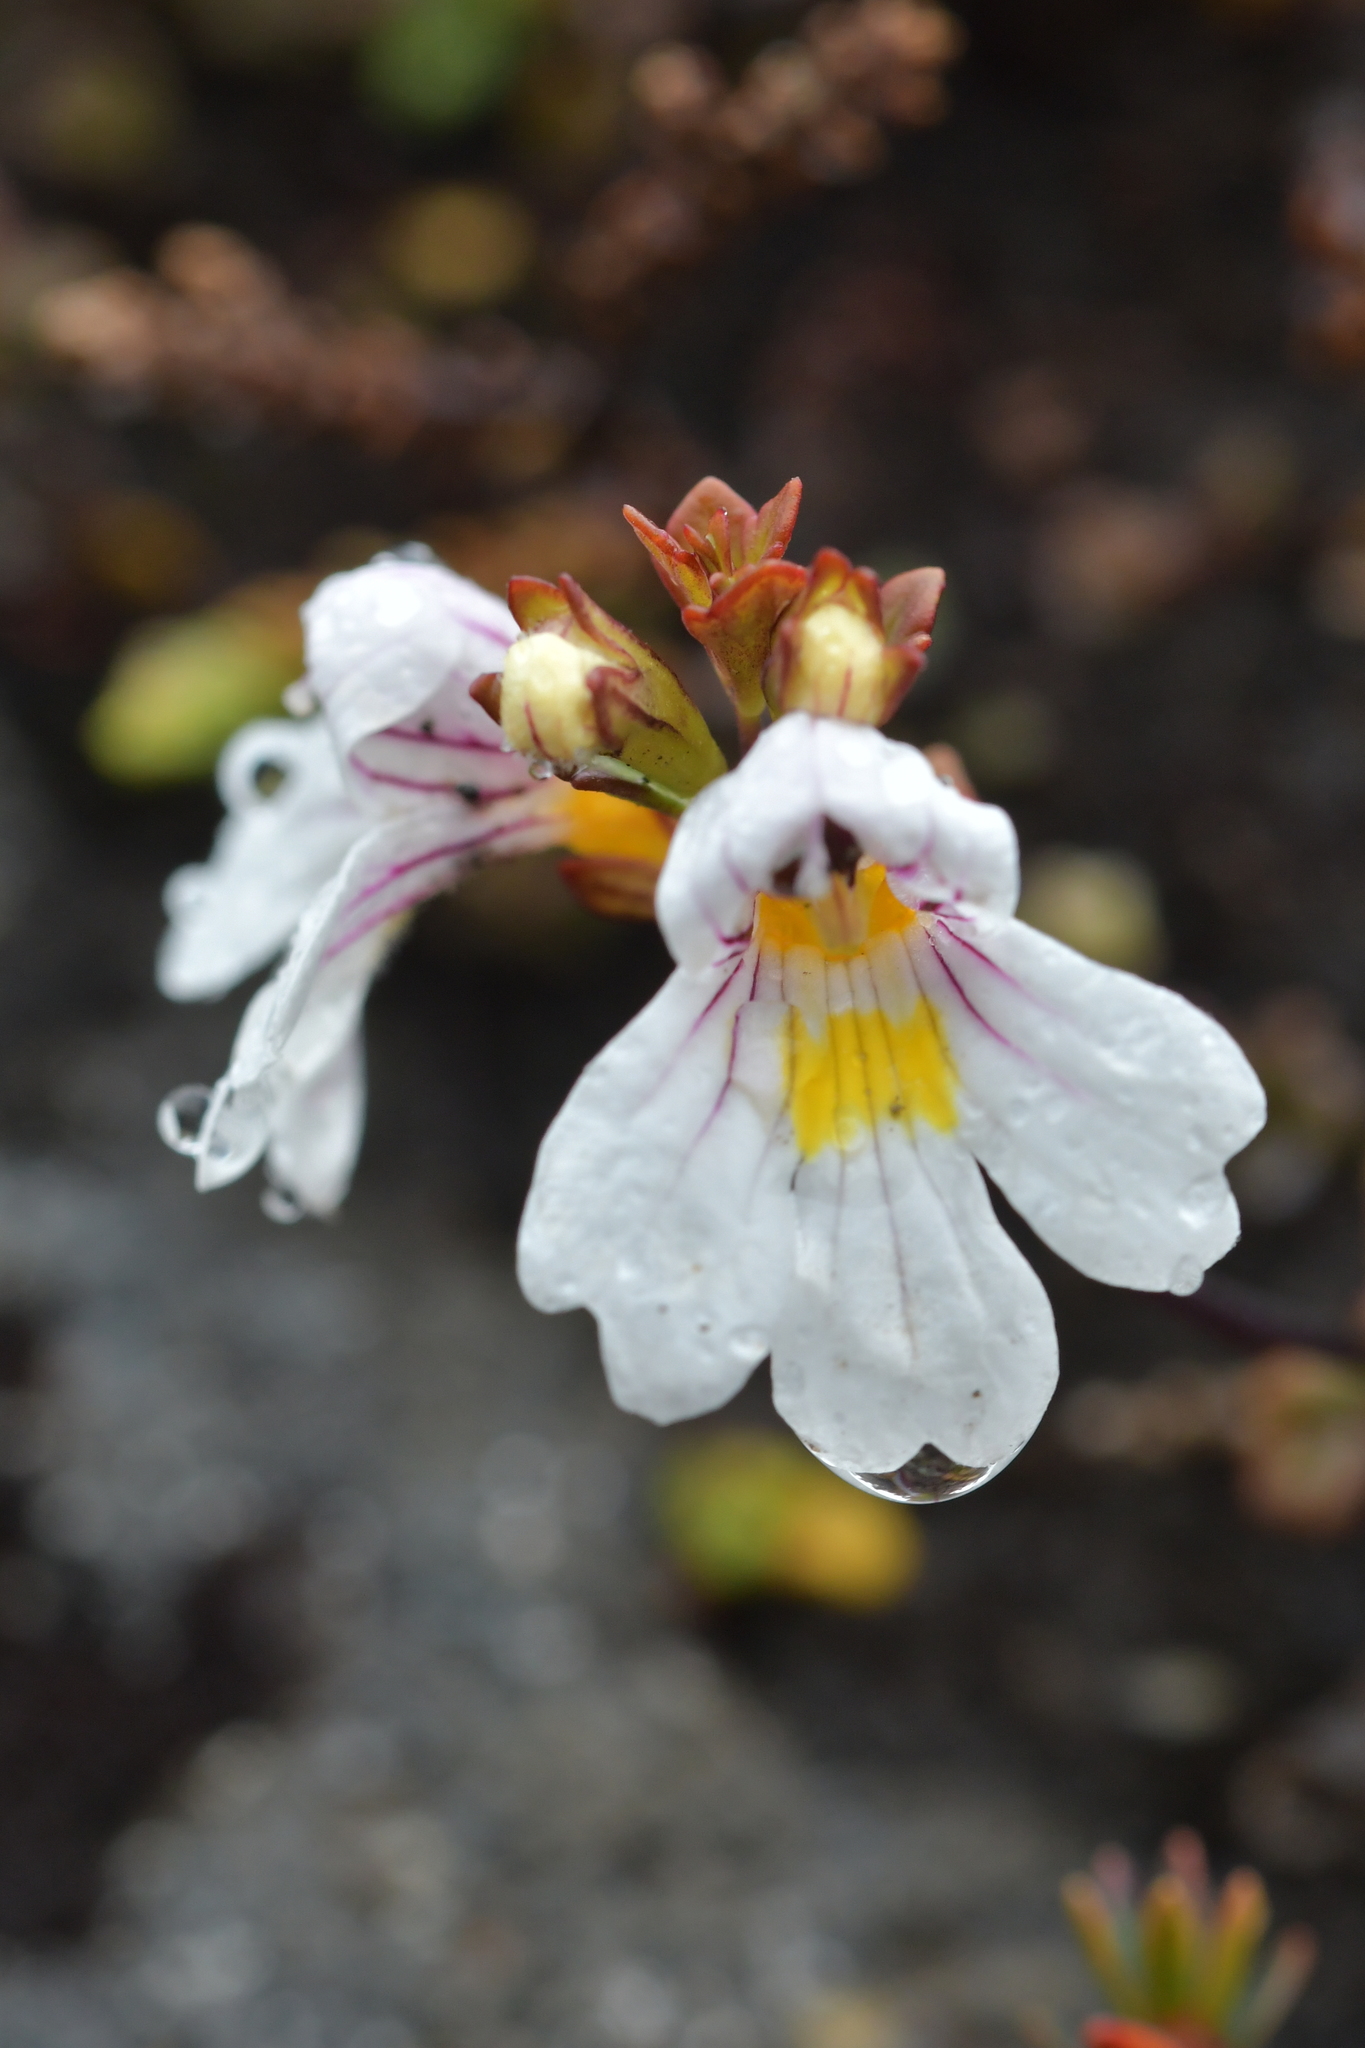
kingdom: Plantae
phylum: Tracheophyta
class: Magnoliopsida
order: Lamiales
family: Orobanchaceae
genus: Euphrasia
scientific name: Euphrasia cuneata
